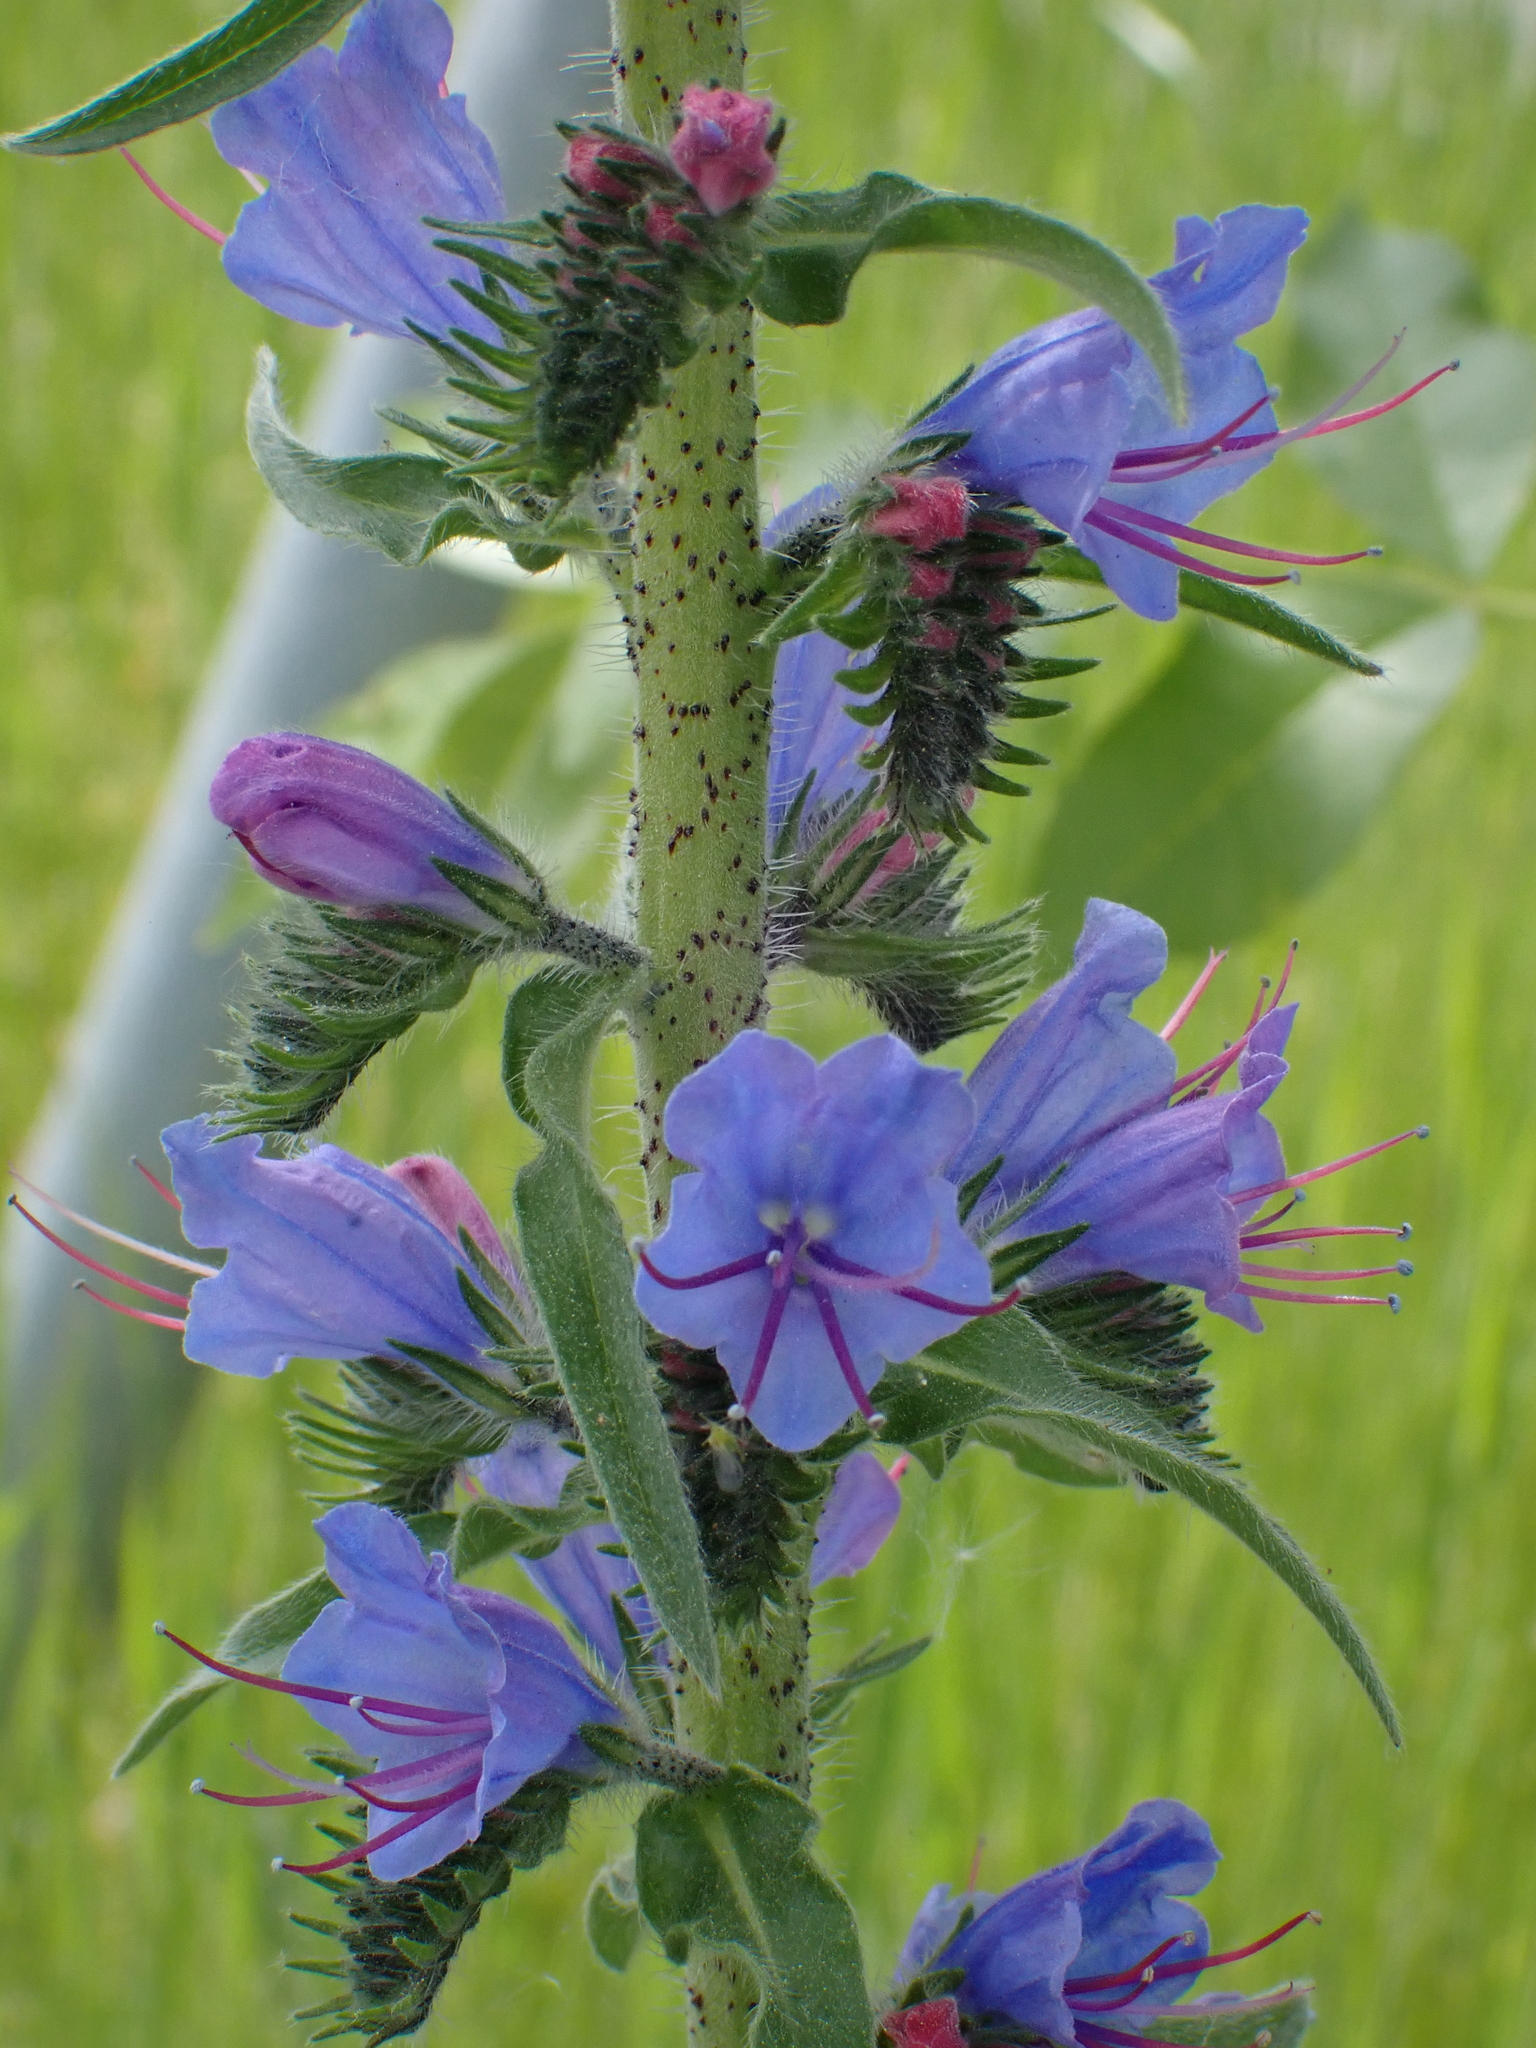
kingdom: Plantae
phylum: Tracheophyta
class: Magnoliopsida
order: Boraginales
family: Boraginaceae
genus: Echium
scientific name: Echium vulgare
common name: Common viper's bugloss
